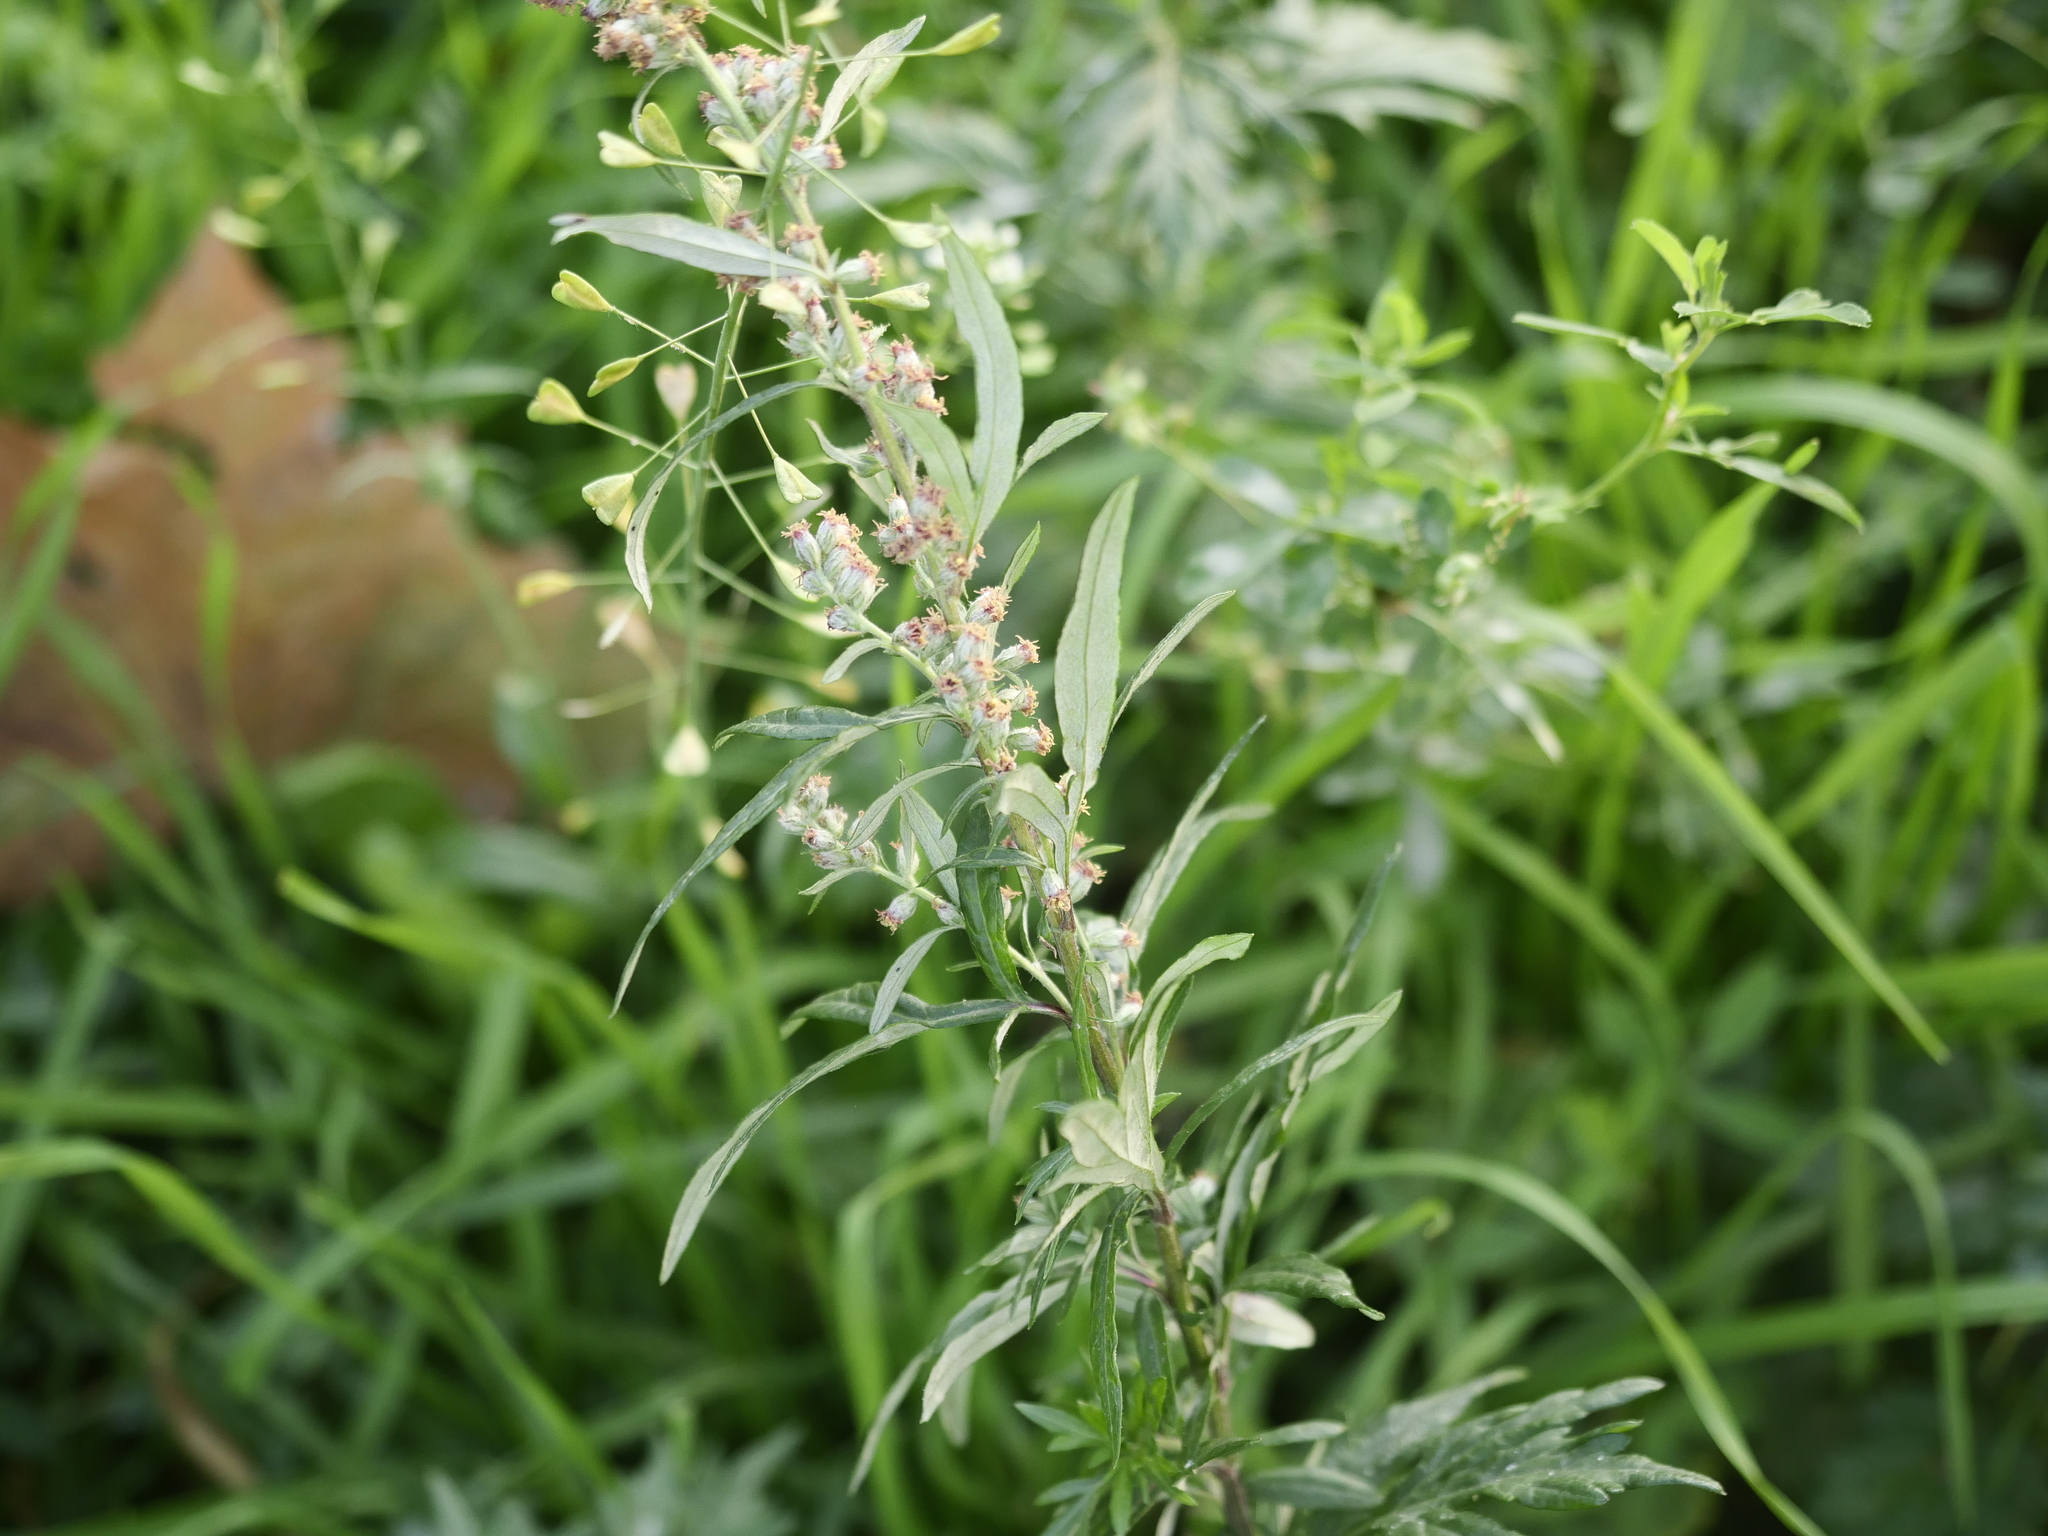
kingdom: Plantae
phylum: Tracheophyta
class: Magnoliopsida
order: Asterales
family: Asteraceae
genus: Artemisia
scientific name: Artemisia vulgaris
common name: Mugwort
